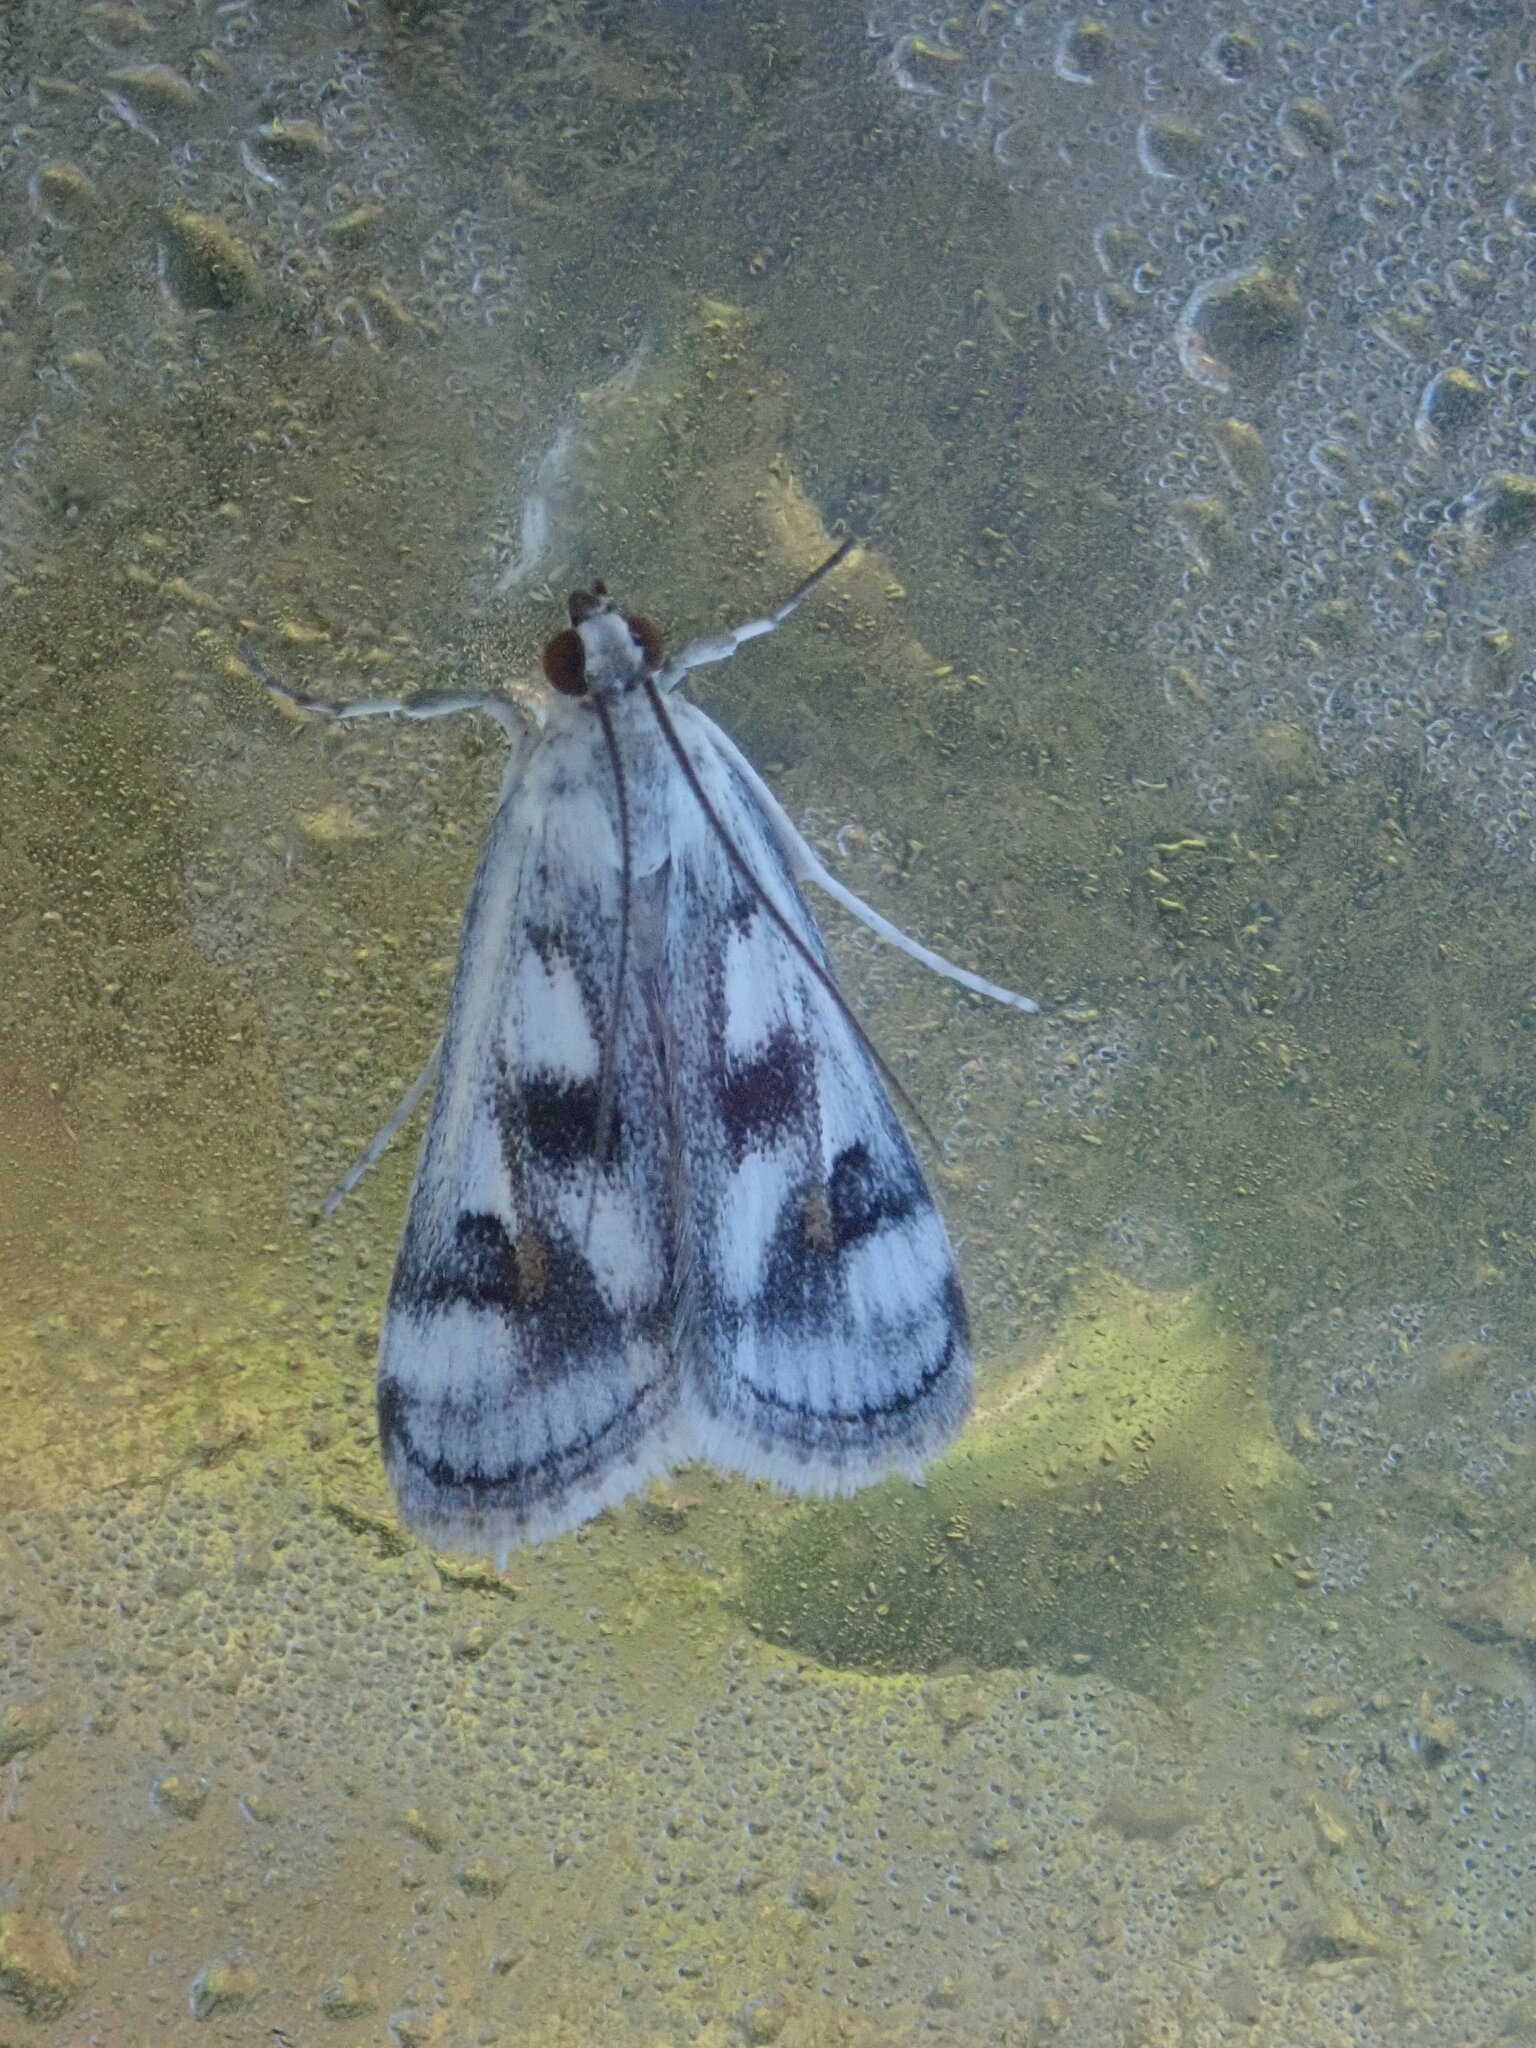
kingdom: Animalia
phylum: Arthropoda
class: Insecta
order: Lepidoptera
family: Crambidae
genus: Parapoynx
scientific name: Parapoynx maculalis
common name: Polymorphic pondweed moth
